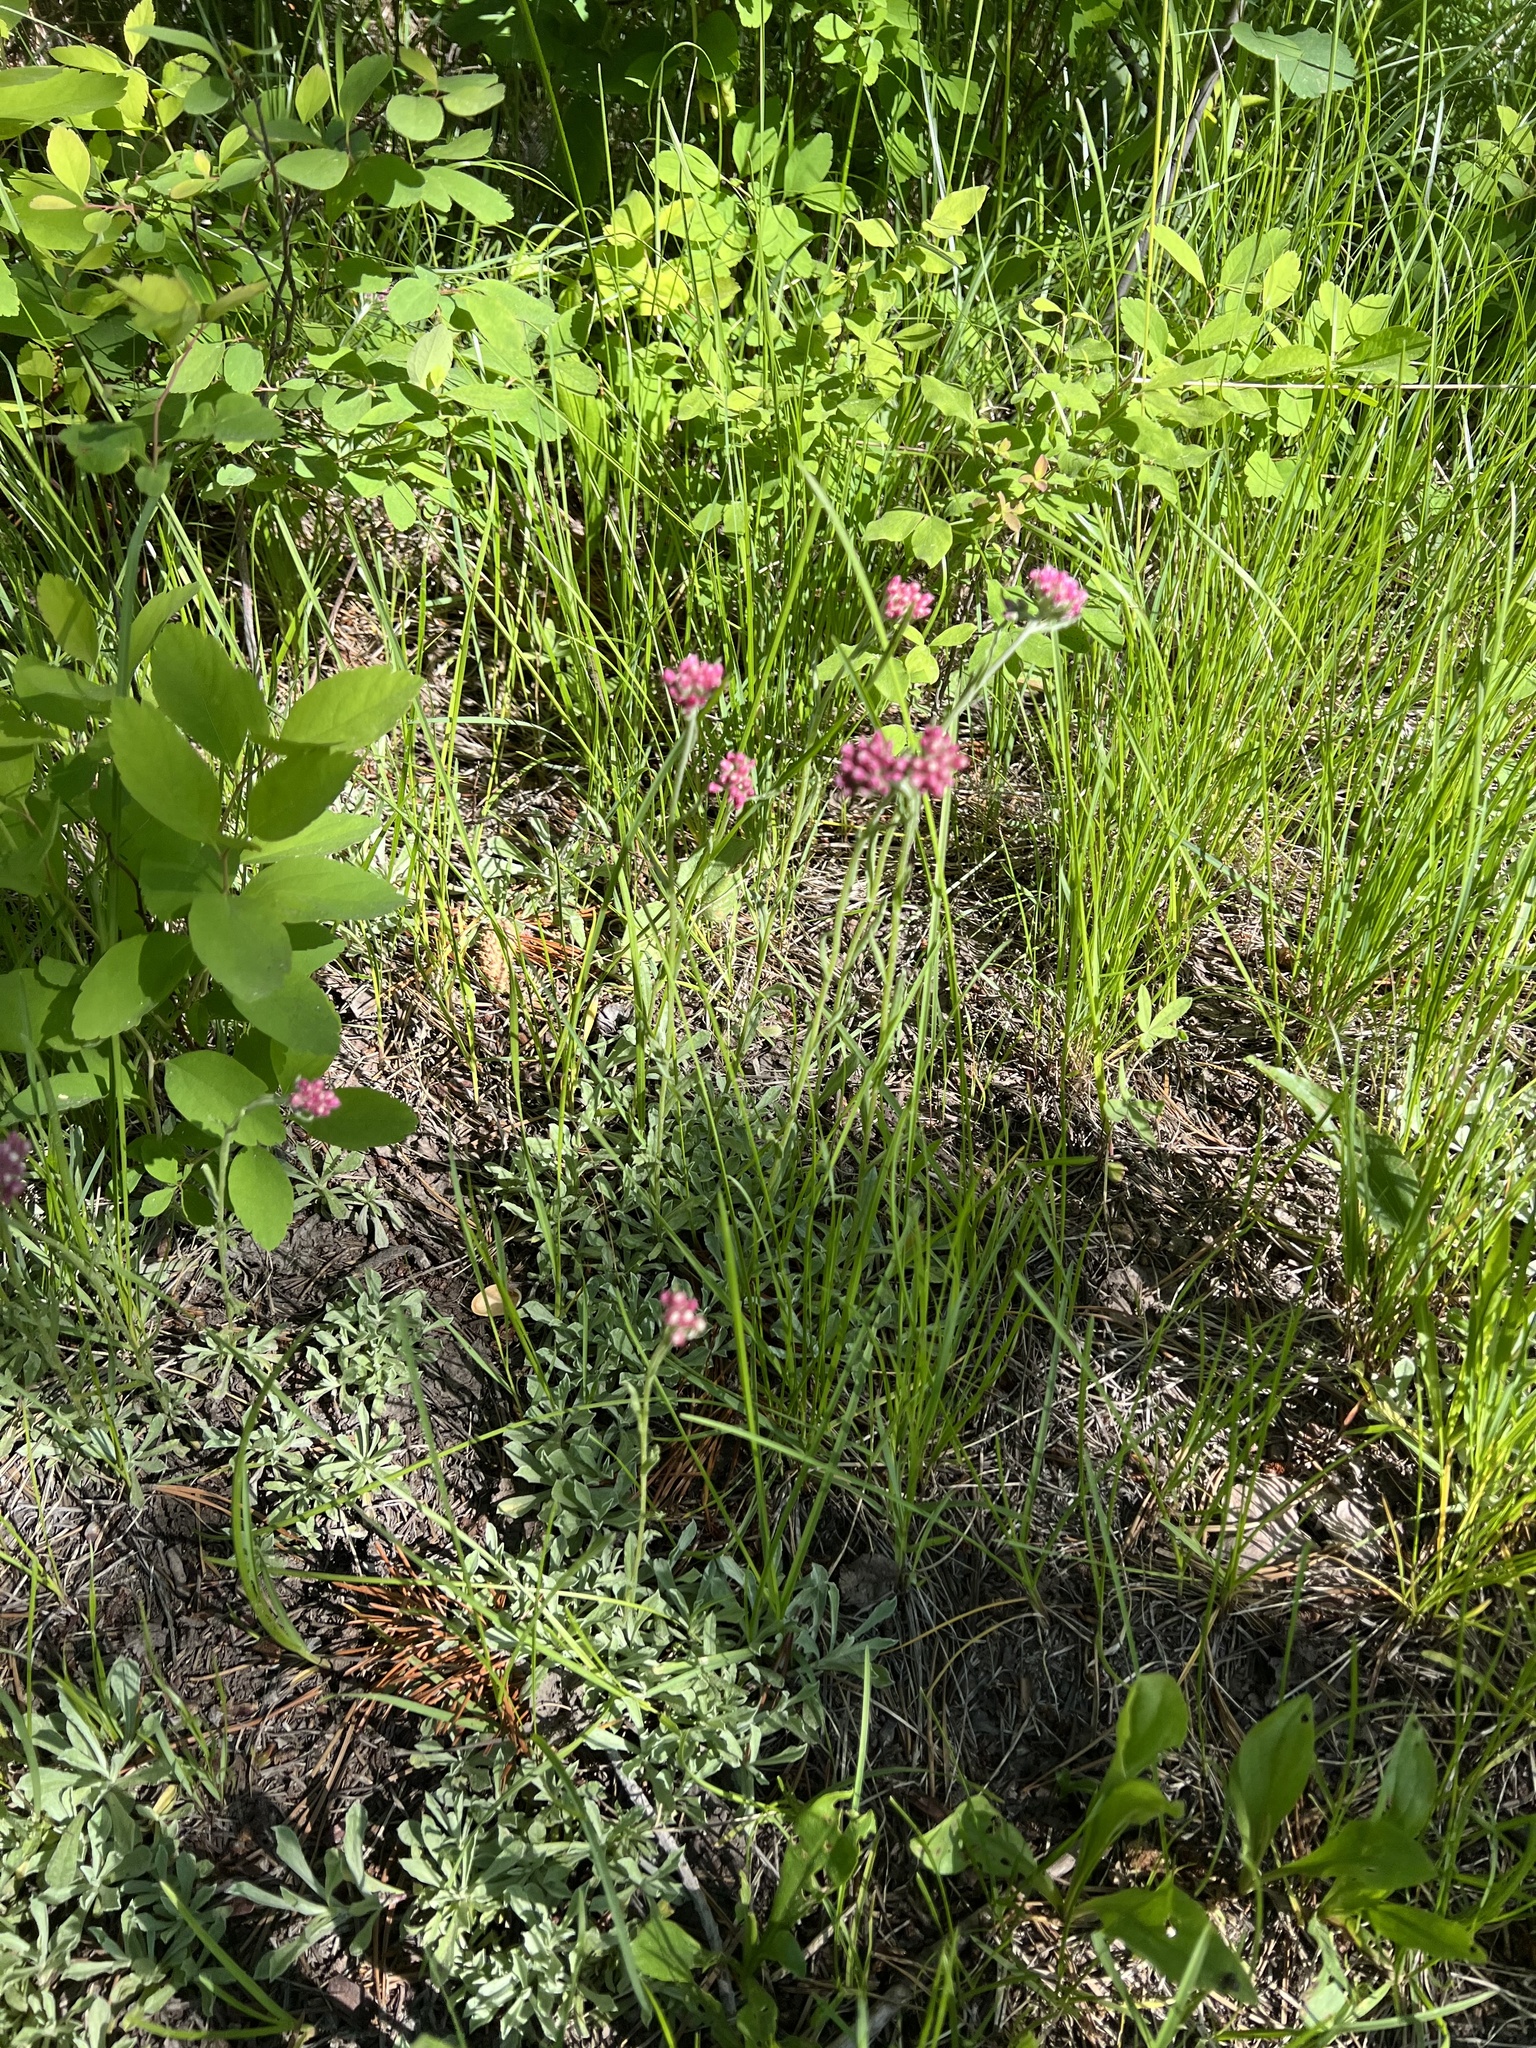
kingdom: Plantae
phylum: Tracheophyta
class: Magnoliopsida
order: Asterales
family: Asteraceae
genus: Antennaria
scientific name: Antennaria rosea
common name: Rosy pussytoes
